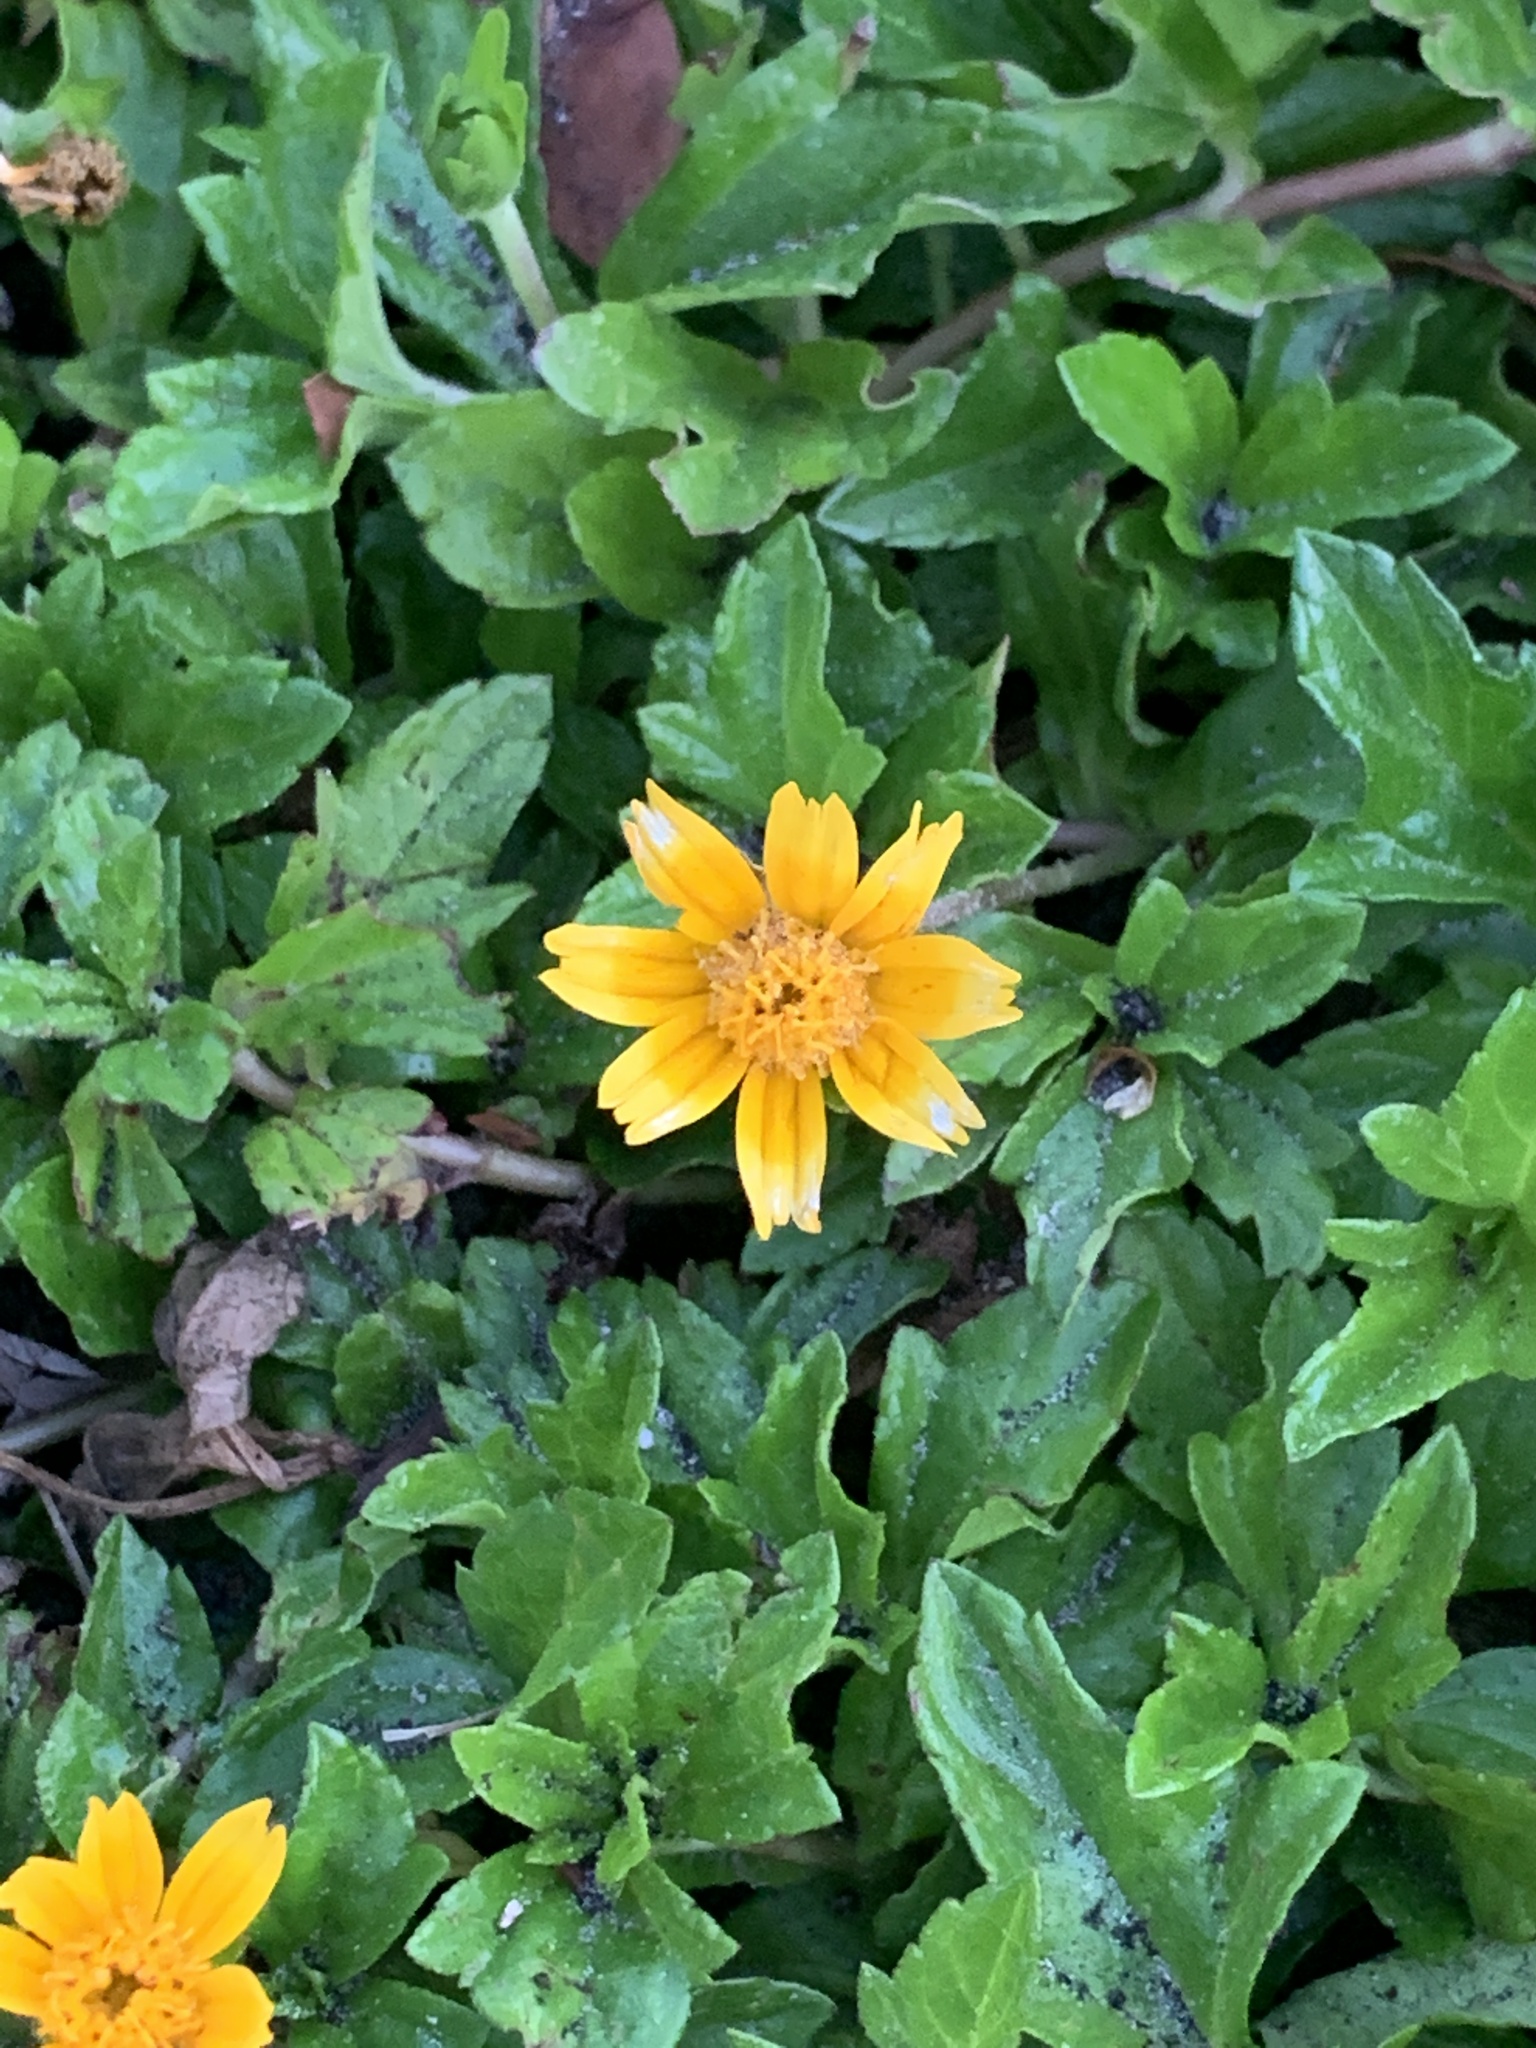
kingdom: Plantae
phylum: Tracheophyta
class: Magnoliopsida
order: Asterales
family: Asteraceae
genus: Sphagneticola
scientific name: Sphagneticola trilobata
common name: Bay biscayne creeping-oxeye
